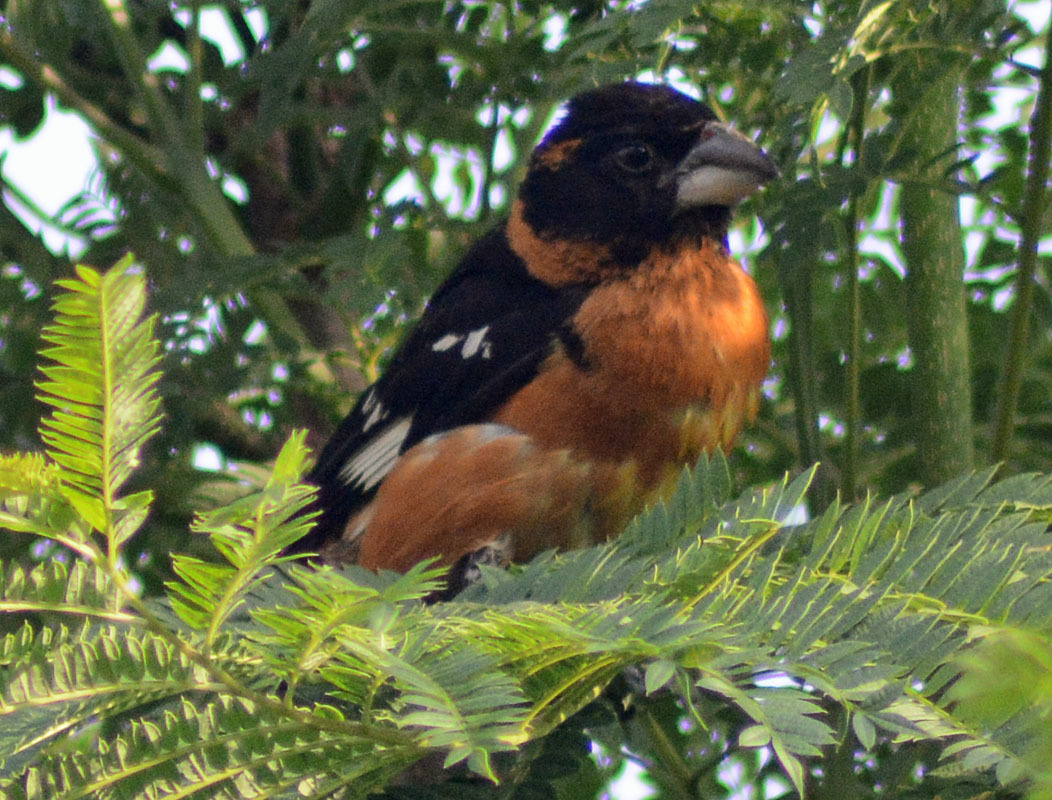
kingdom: Animalia
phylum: Chordata
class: Aves
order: Passeriformes
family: Cardinalidae
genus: Pheucticus
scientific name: Pheucticus melanocephalus
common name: Black-headed grosbeak
